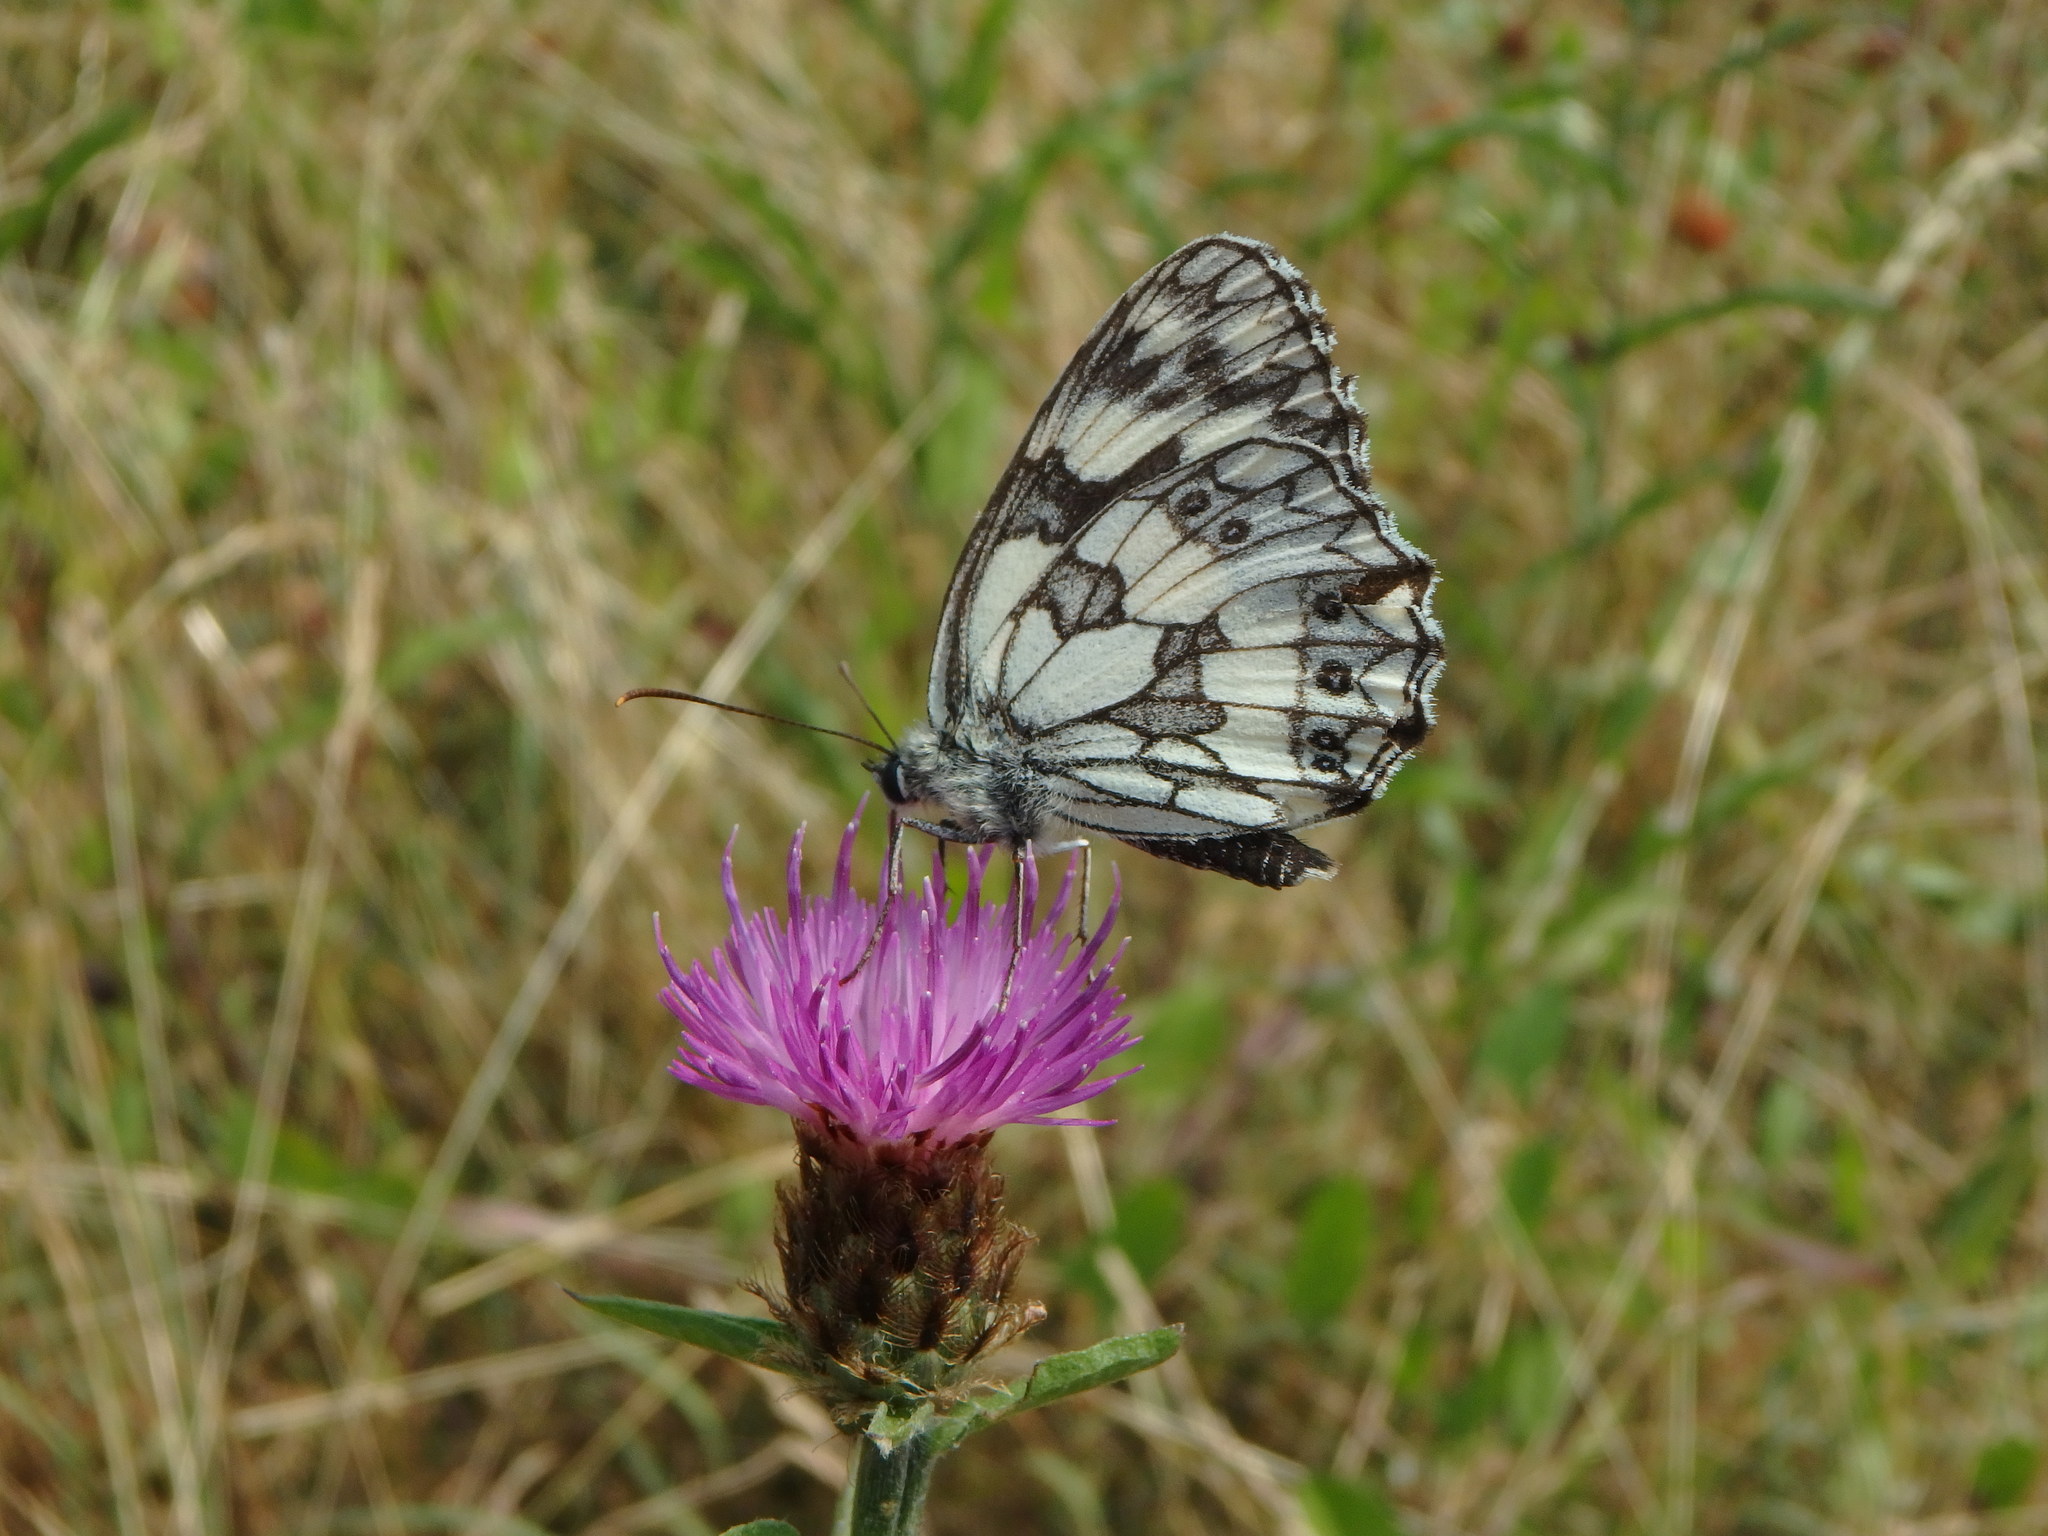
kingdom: Animalia
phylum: Arthropoda
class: Insecta
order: Lepidoptera
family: Nymphalidae
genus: Melanargia
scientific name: Melanargia galathea
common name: Marbled white
